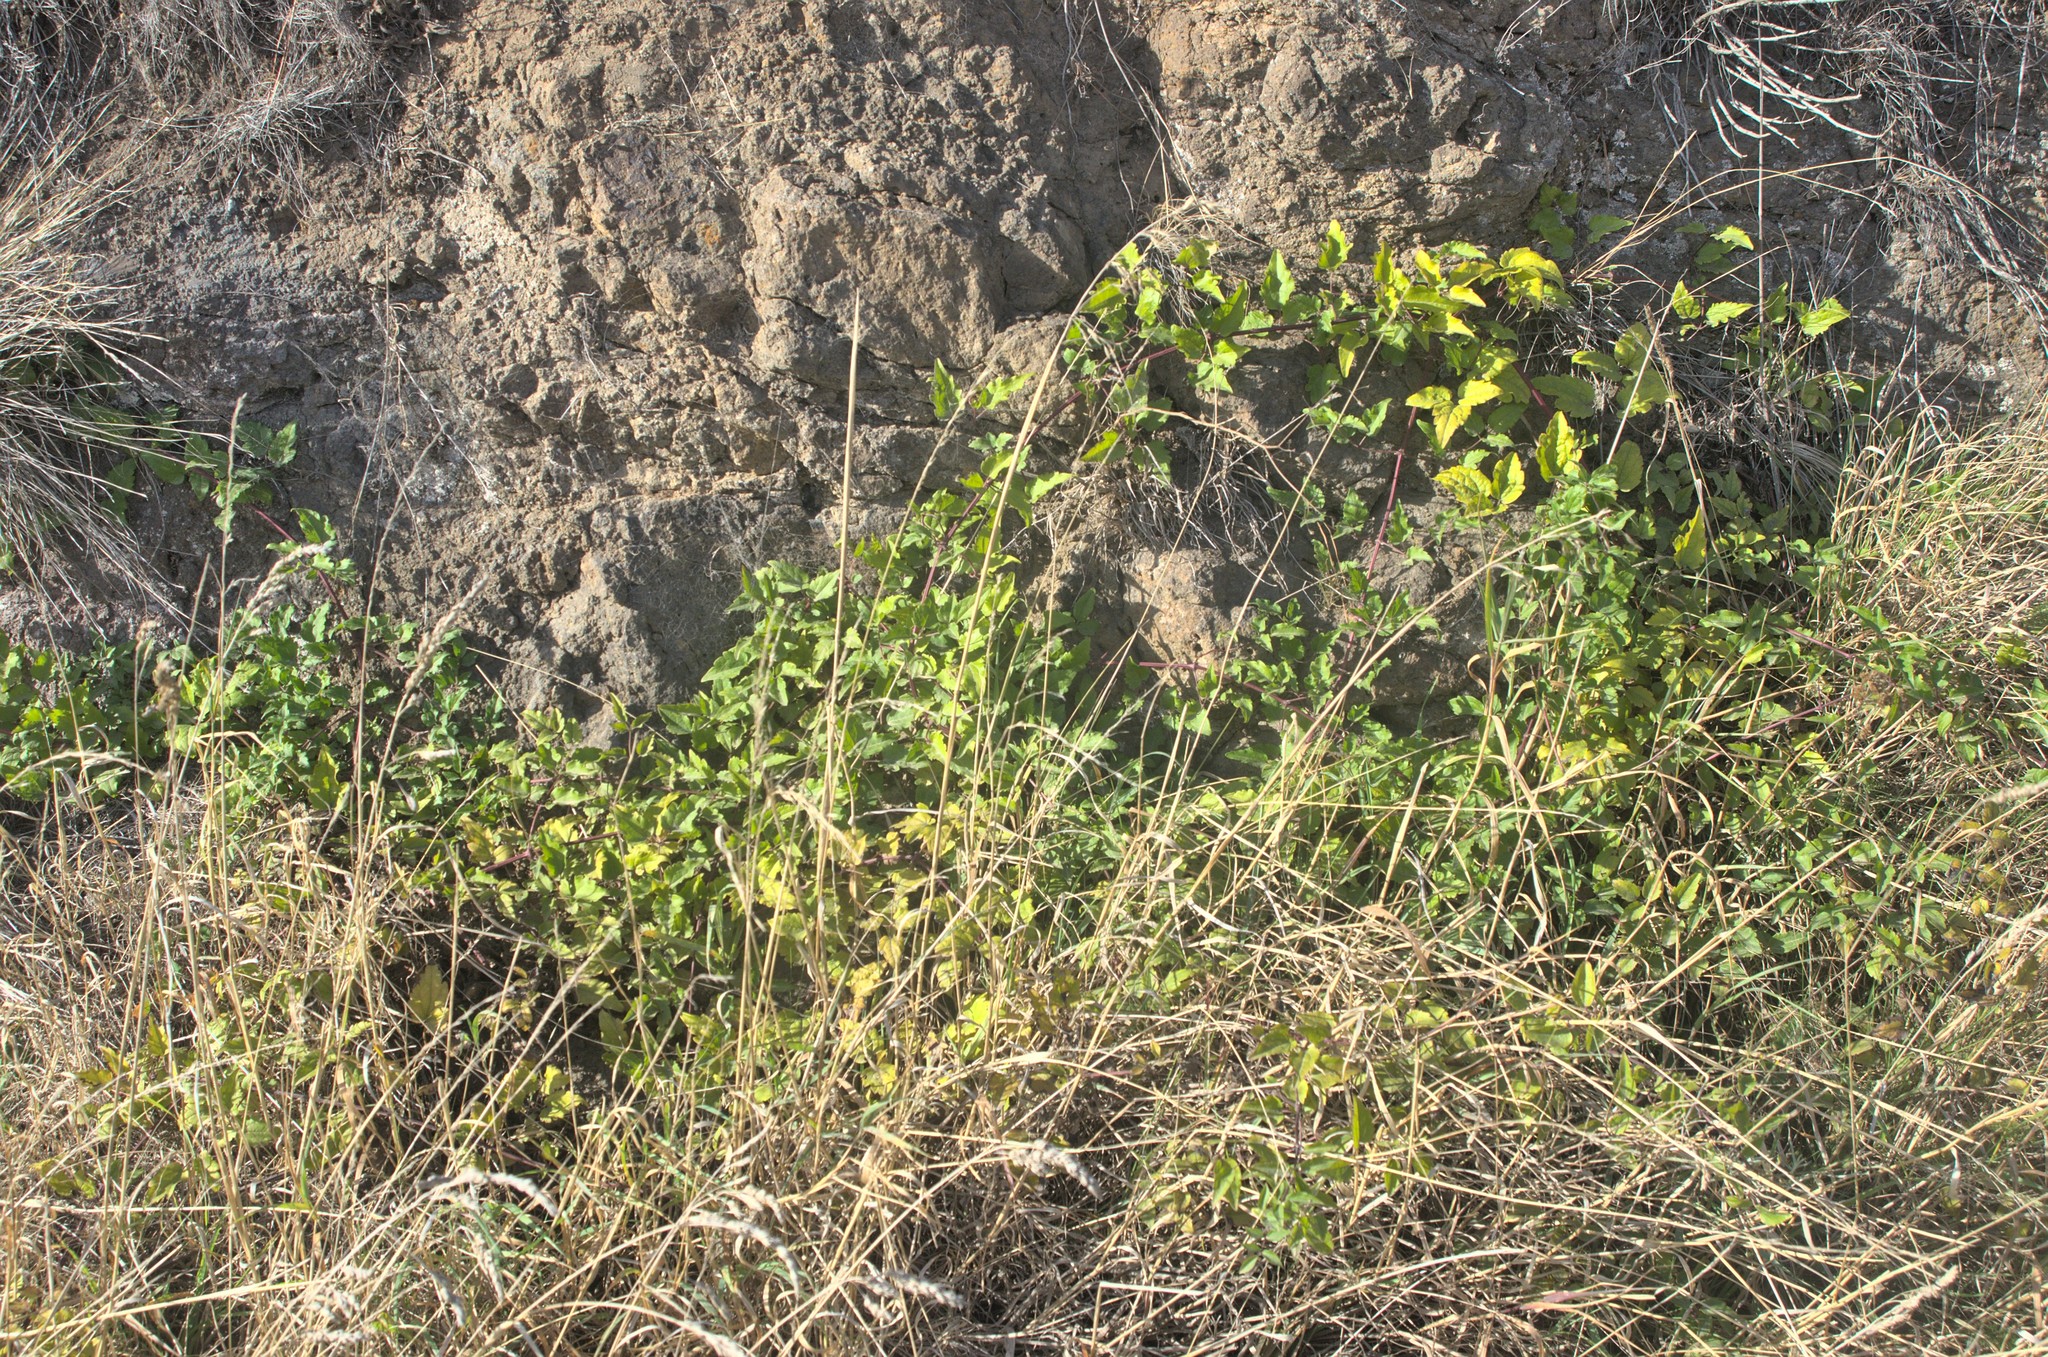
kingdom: Plantae
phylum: Tracheophyta
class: Magnoliopsida
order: Ranunculales
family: Ranunculaceae
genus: Clematis
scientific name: Clematis vitalba
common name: Evergreen clematis
